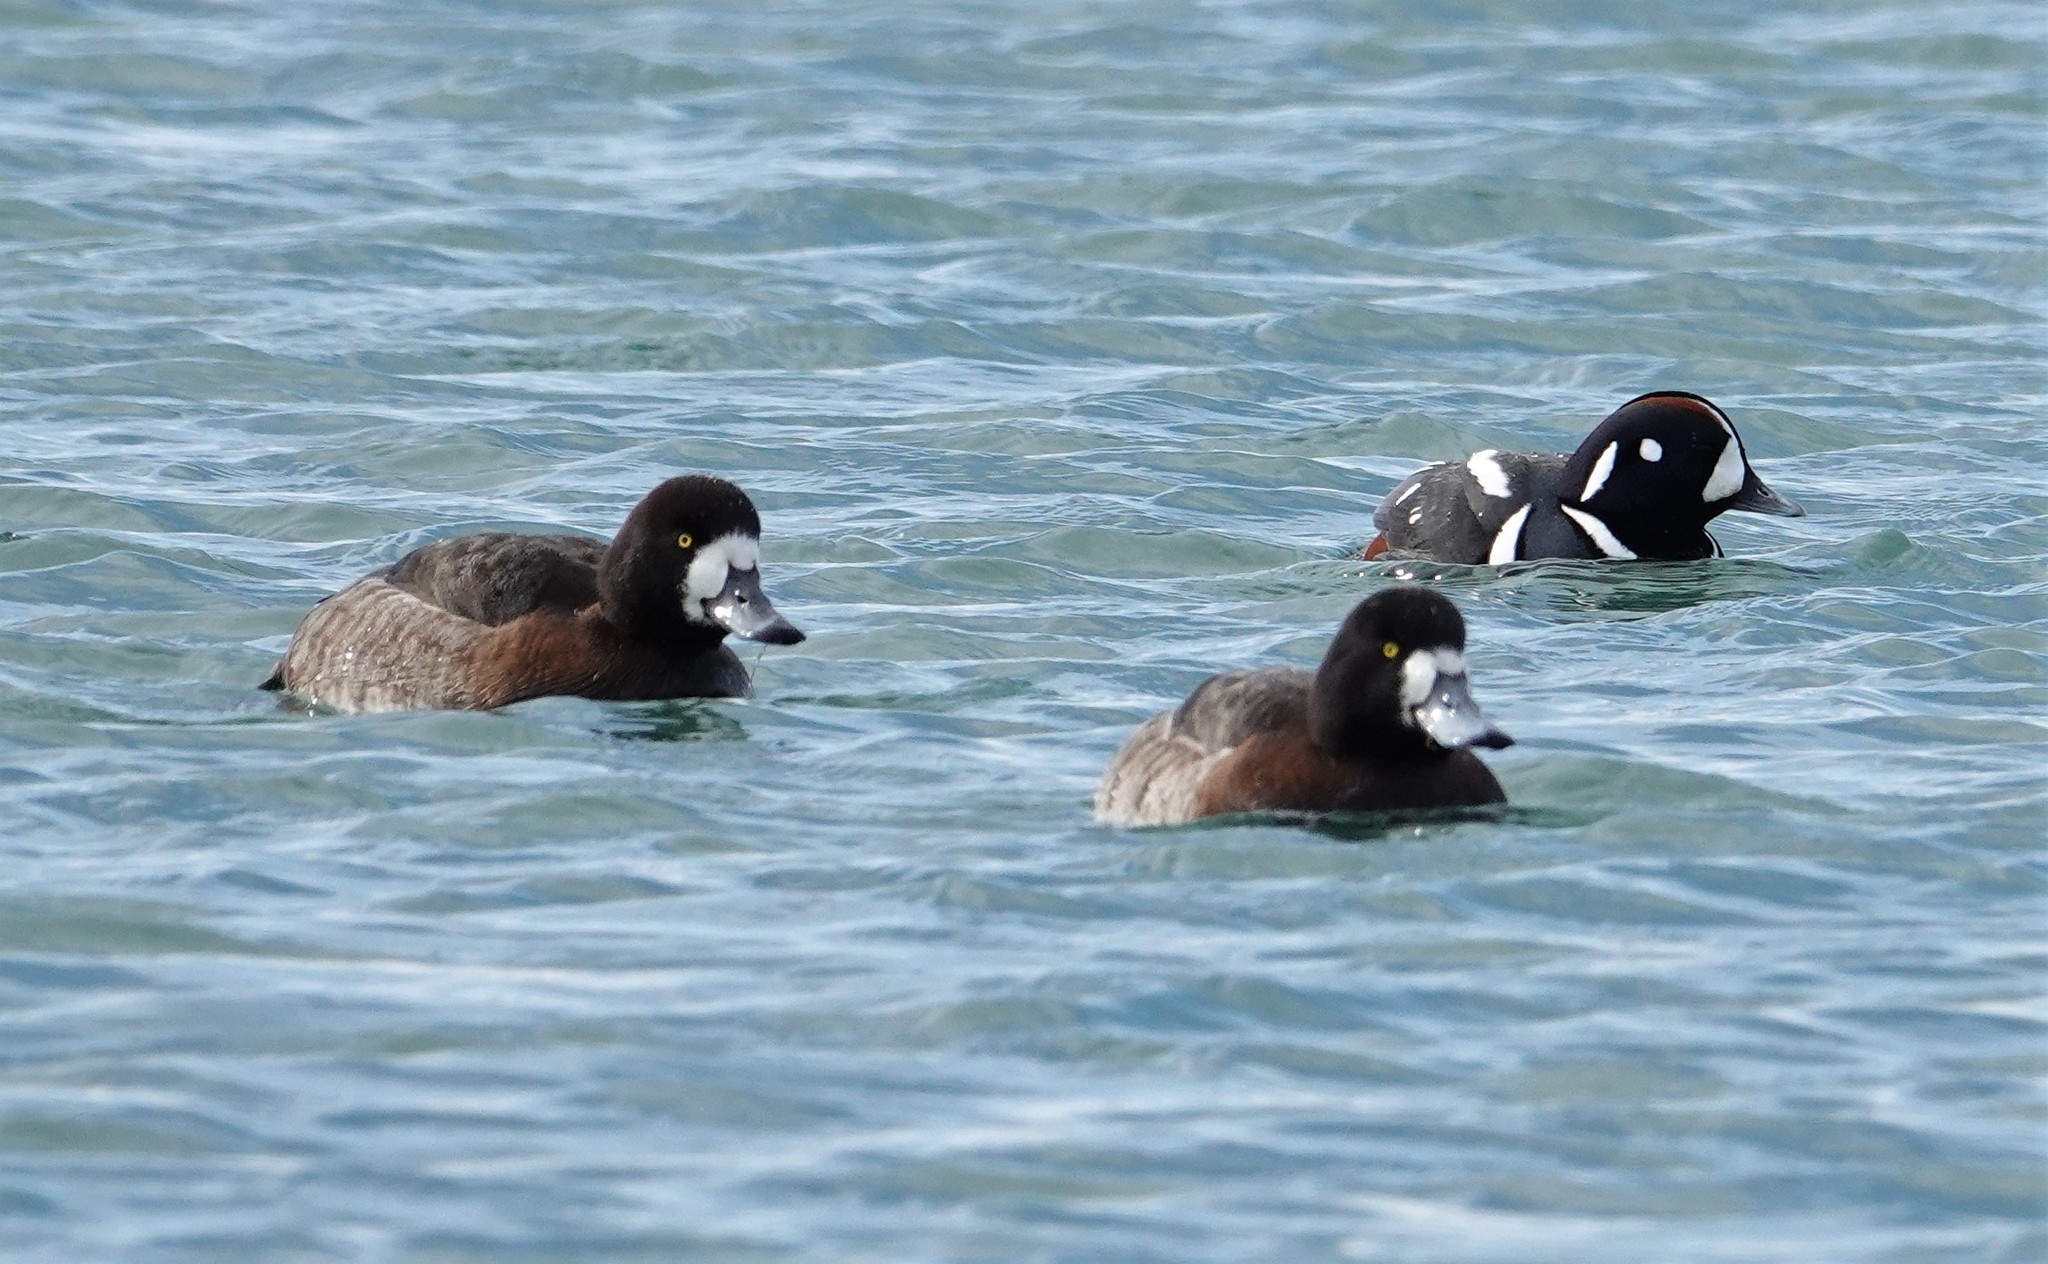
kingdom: Animalia
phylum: Chordata
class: Aves
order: Anseriformes
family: Anatidae
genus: Aythya
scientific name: Aythya marila
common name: Greater scaup
